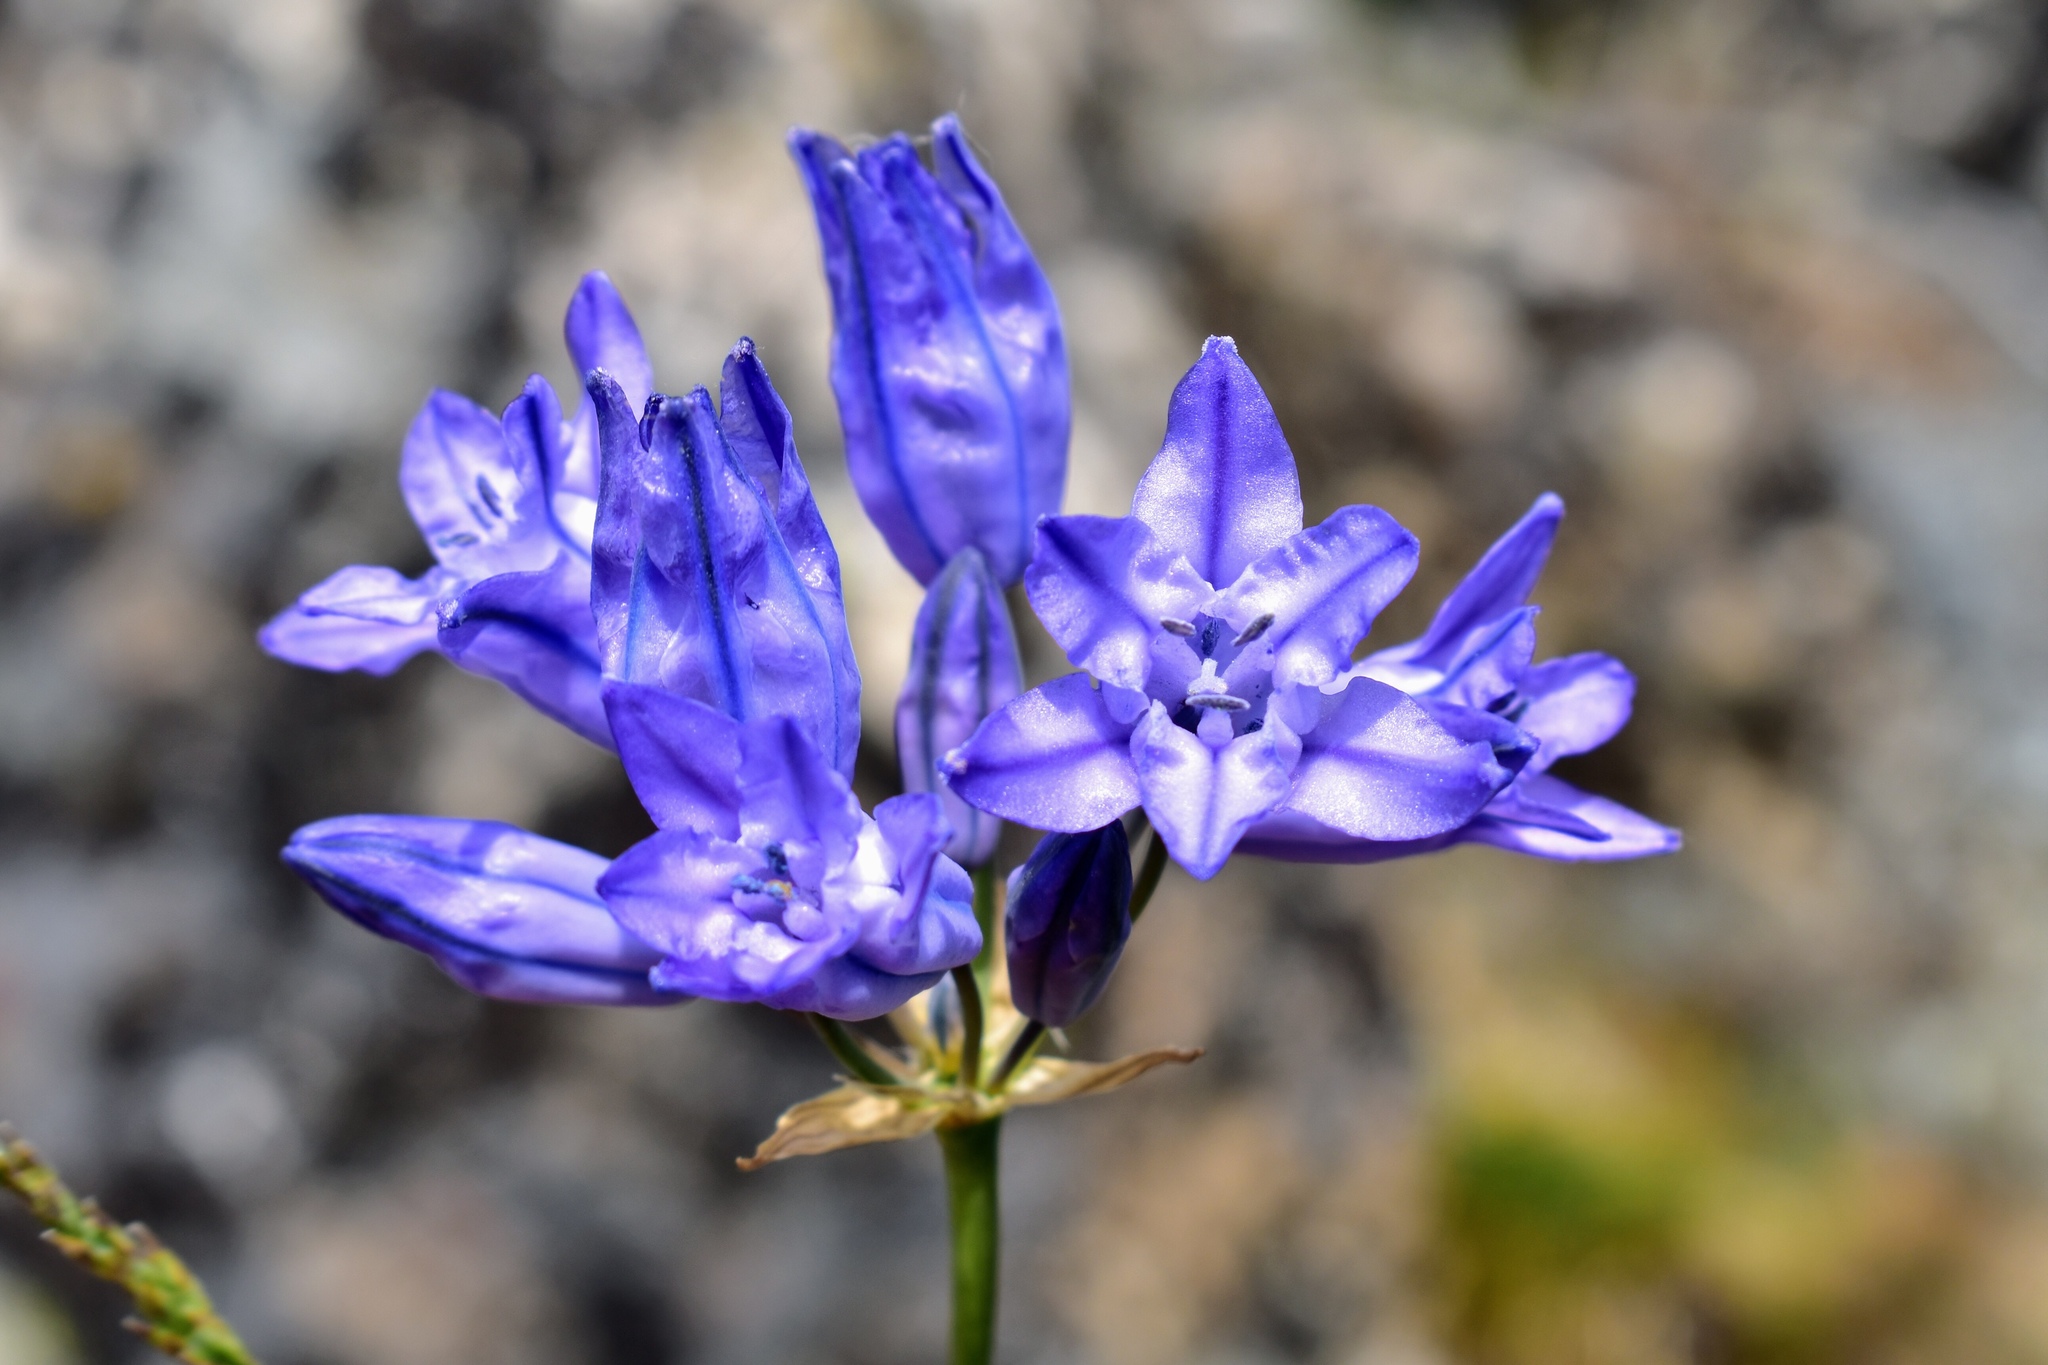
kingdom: Plantae
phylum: Tracheophyta
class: Liliopsida
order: Asparagales
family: Asparagaceae
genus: Triteleia
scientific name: Triteleia grandiflora
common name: Wild hyacinth
